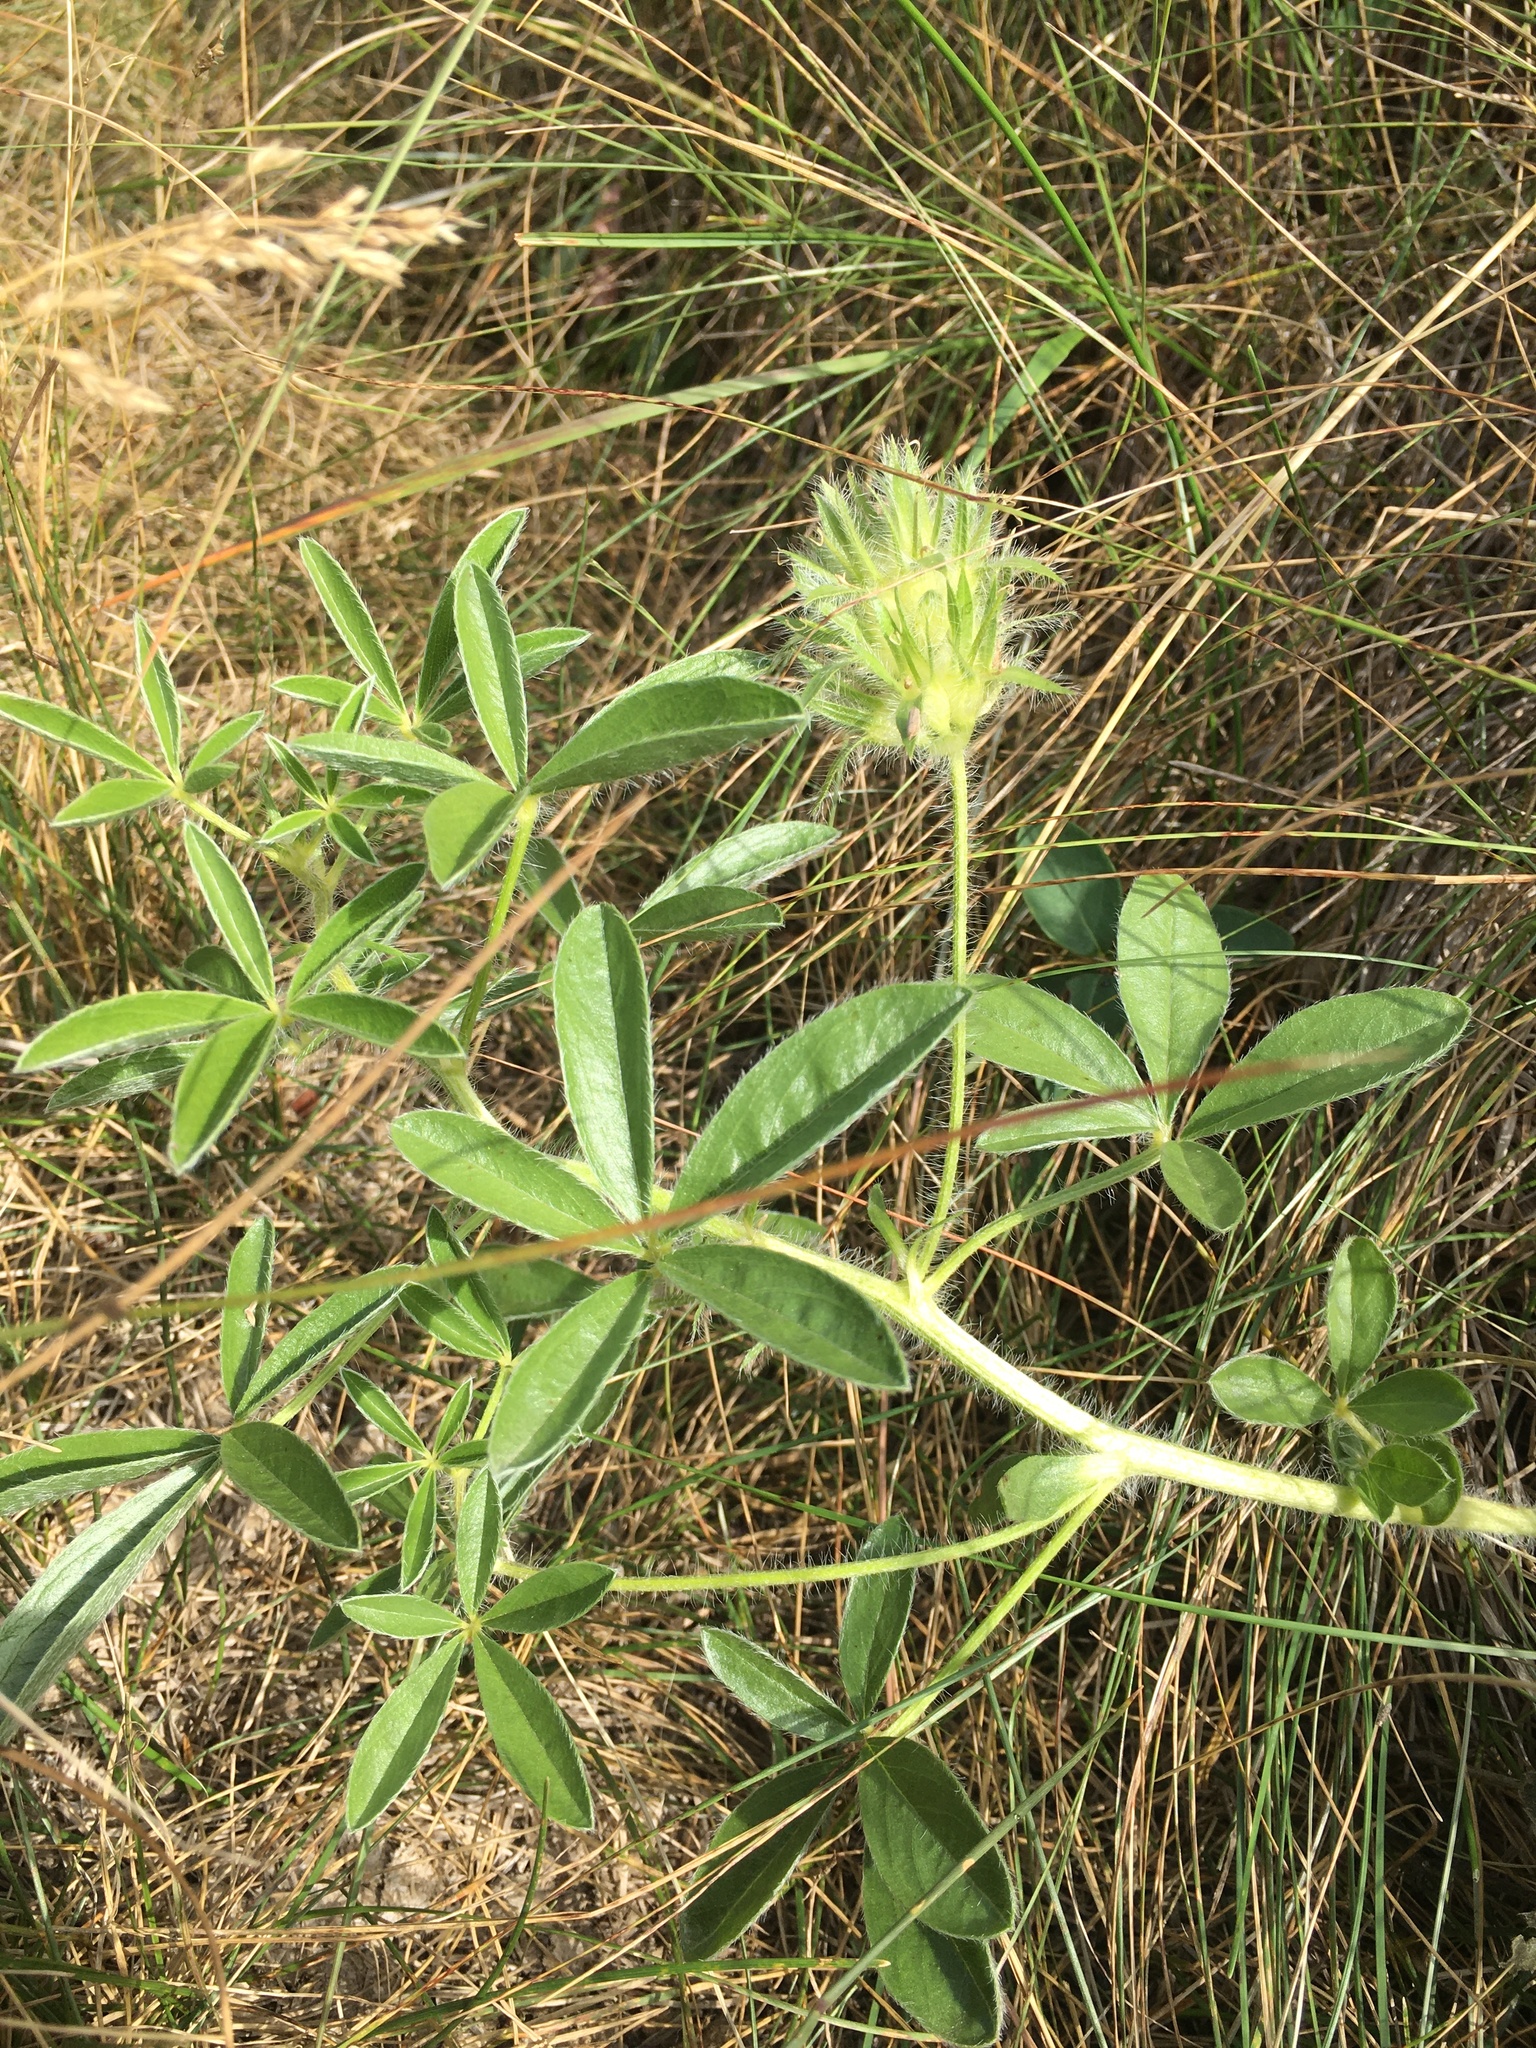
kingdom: Plantae
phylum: Tracheophyta
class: Magnoliopsida
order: Fabales
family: Fabaceae
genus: Pediomelum
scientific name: Pediomelum esculentum
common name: Indian-turnip
